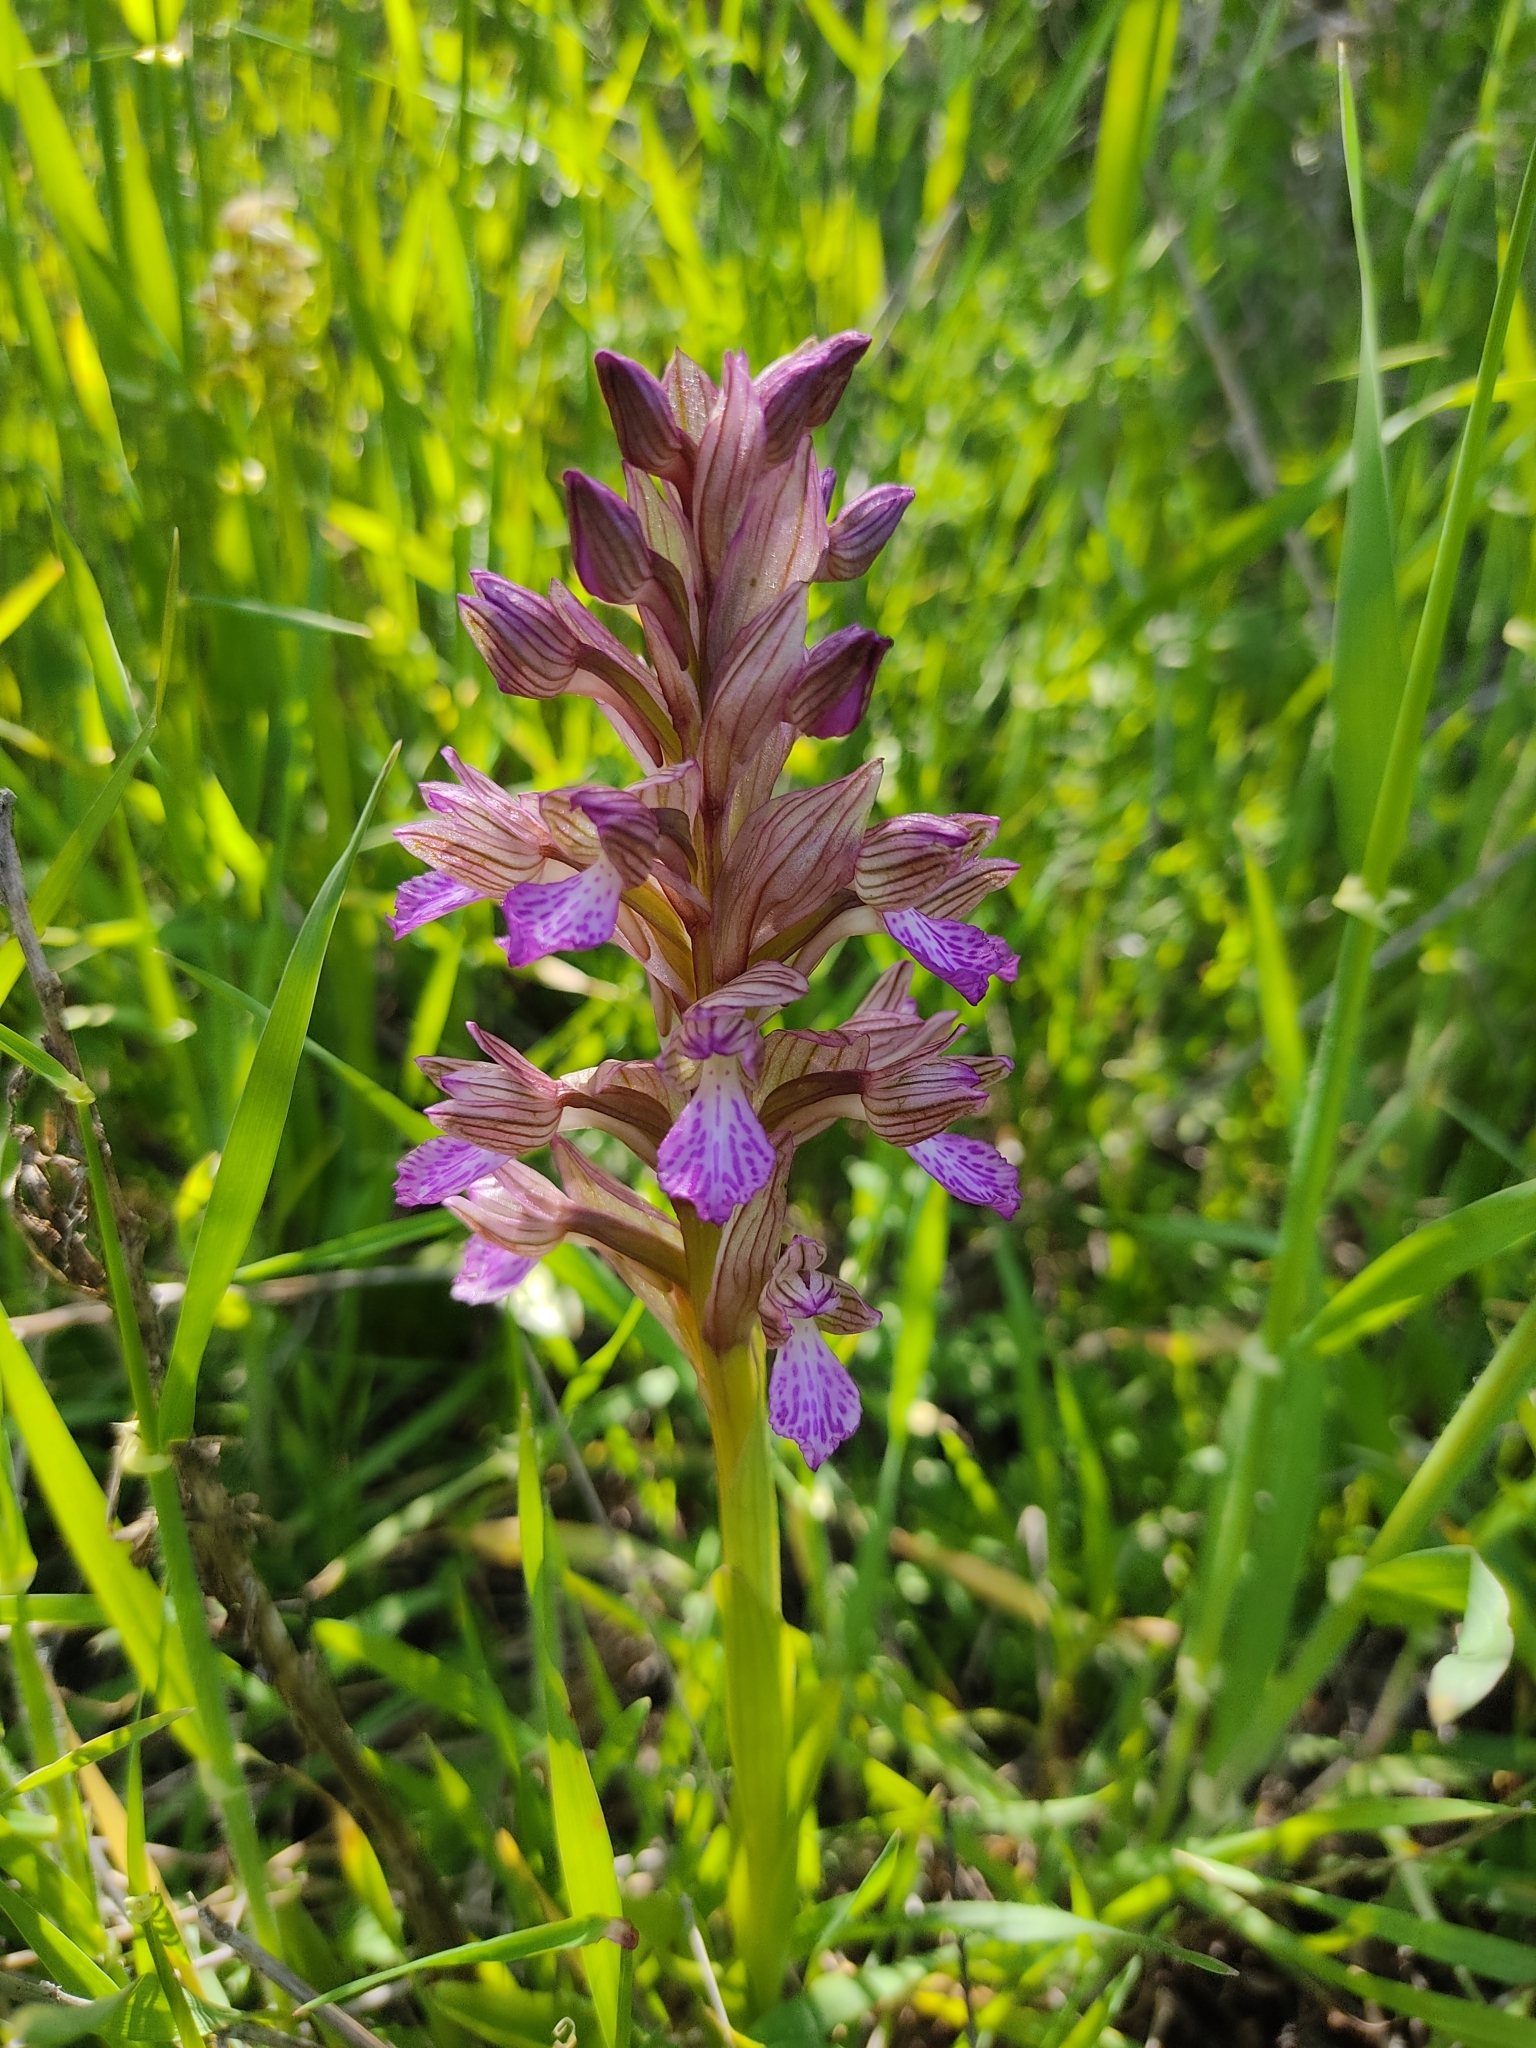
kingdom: Plantae
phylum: Tracheophyta
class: Liliopsida
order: Asparagales
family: Orchidaceae
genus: Anacamptis
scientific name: Anacamptis papilionacea
